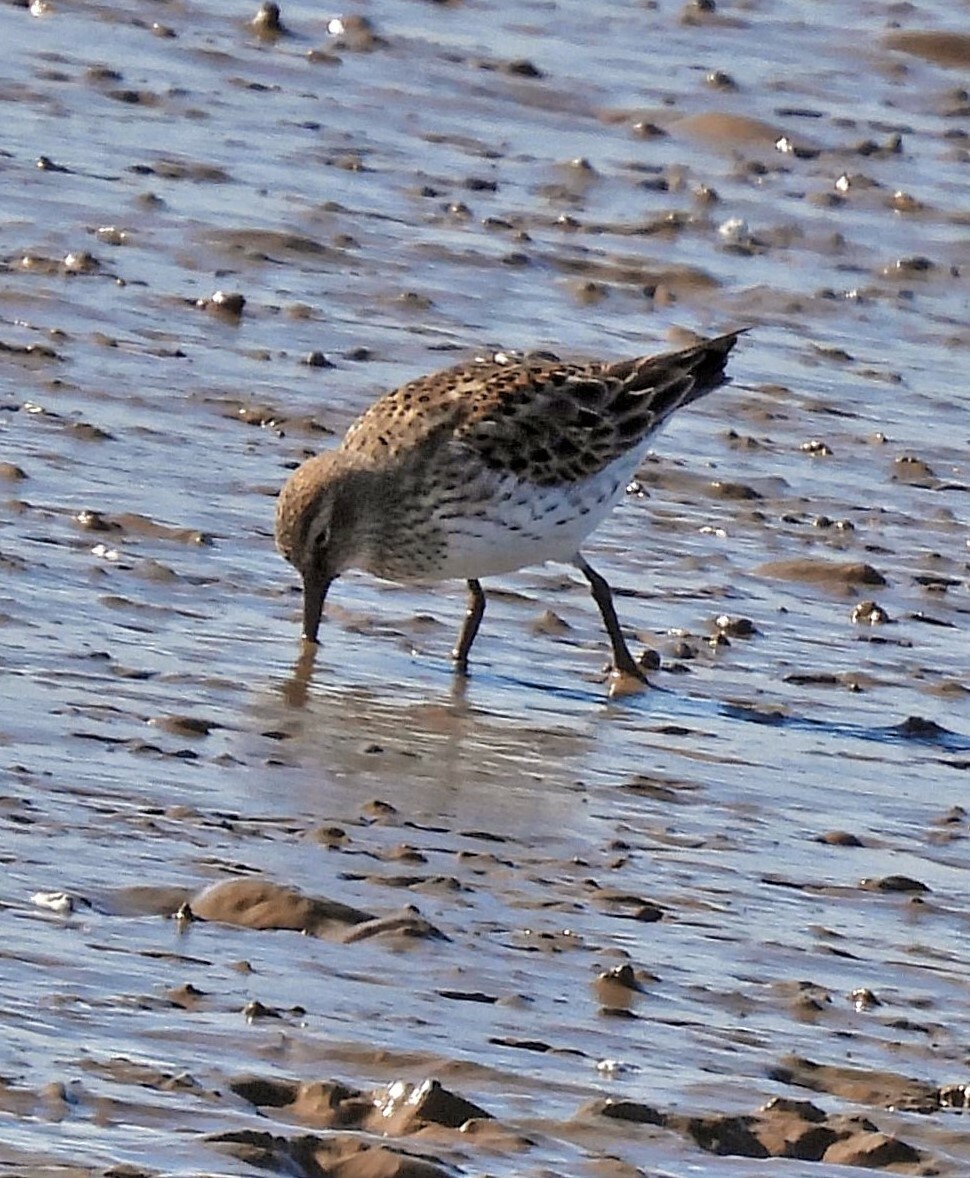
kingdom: Animalia
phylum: Chordata
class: Aves
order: Charadriiformes
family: Scolopacidae
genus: Calidris
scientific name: Calidris fuscicollis
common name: White-rumped sandpiper
